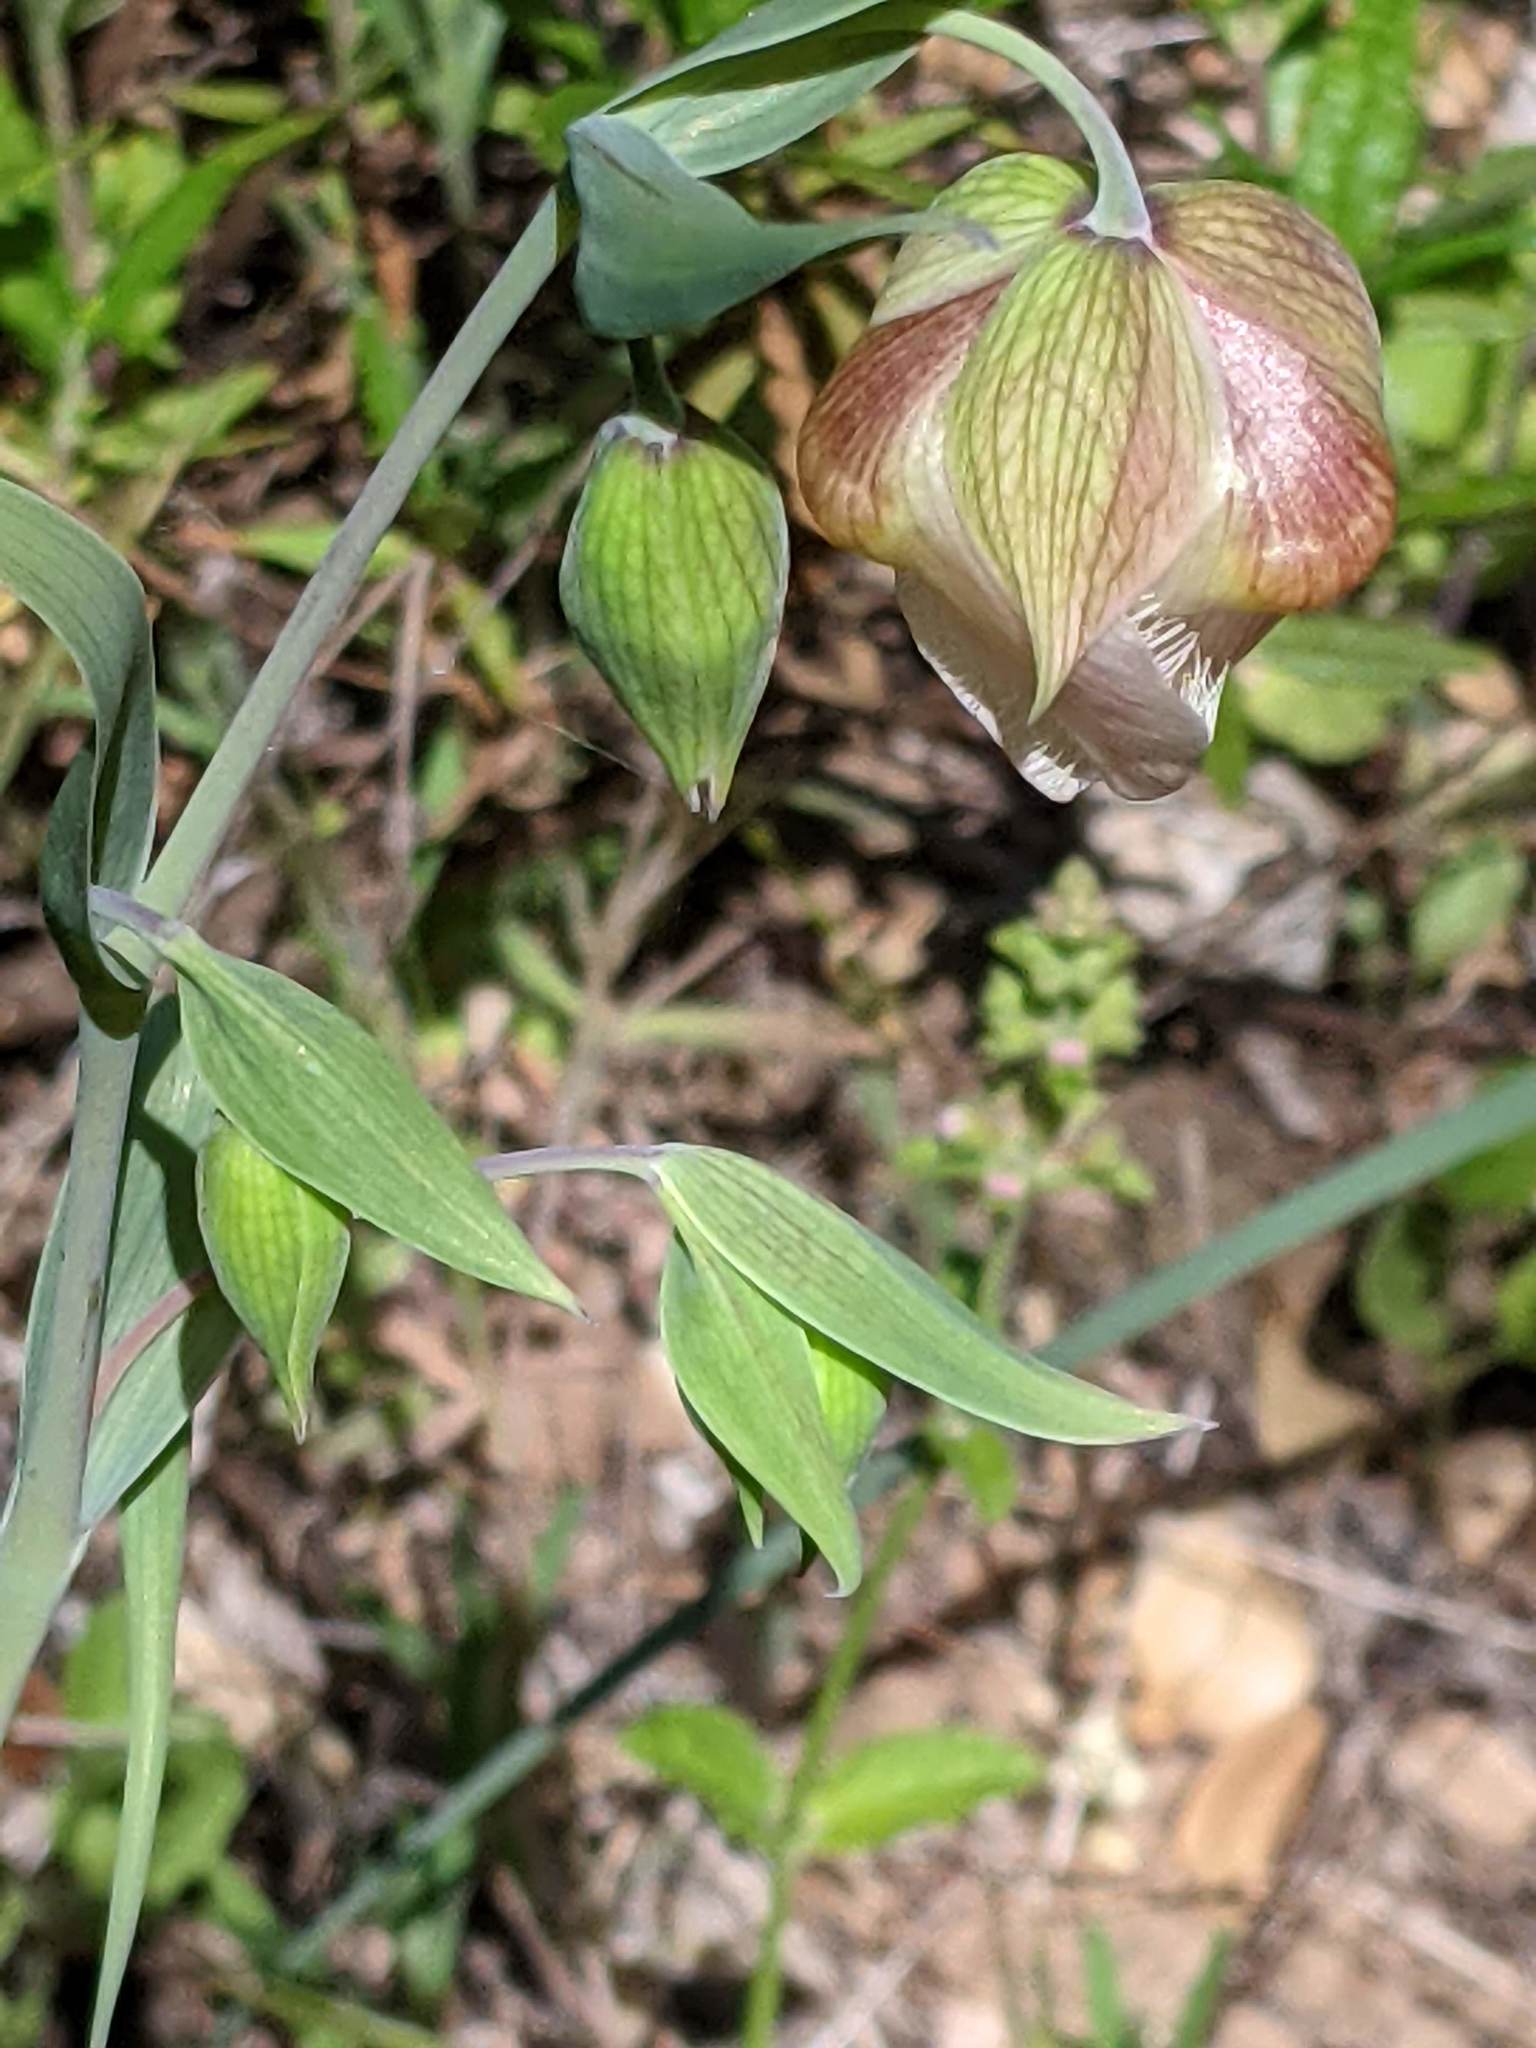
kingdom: Plantae
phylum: Tracheophyta
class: Liliopsida
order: Liliales
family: Liliaceae
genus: Calochortus
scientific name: Calochortus albus
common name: Fairy-lantern
